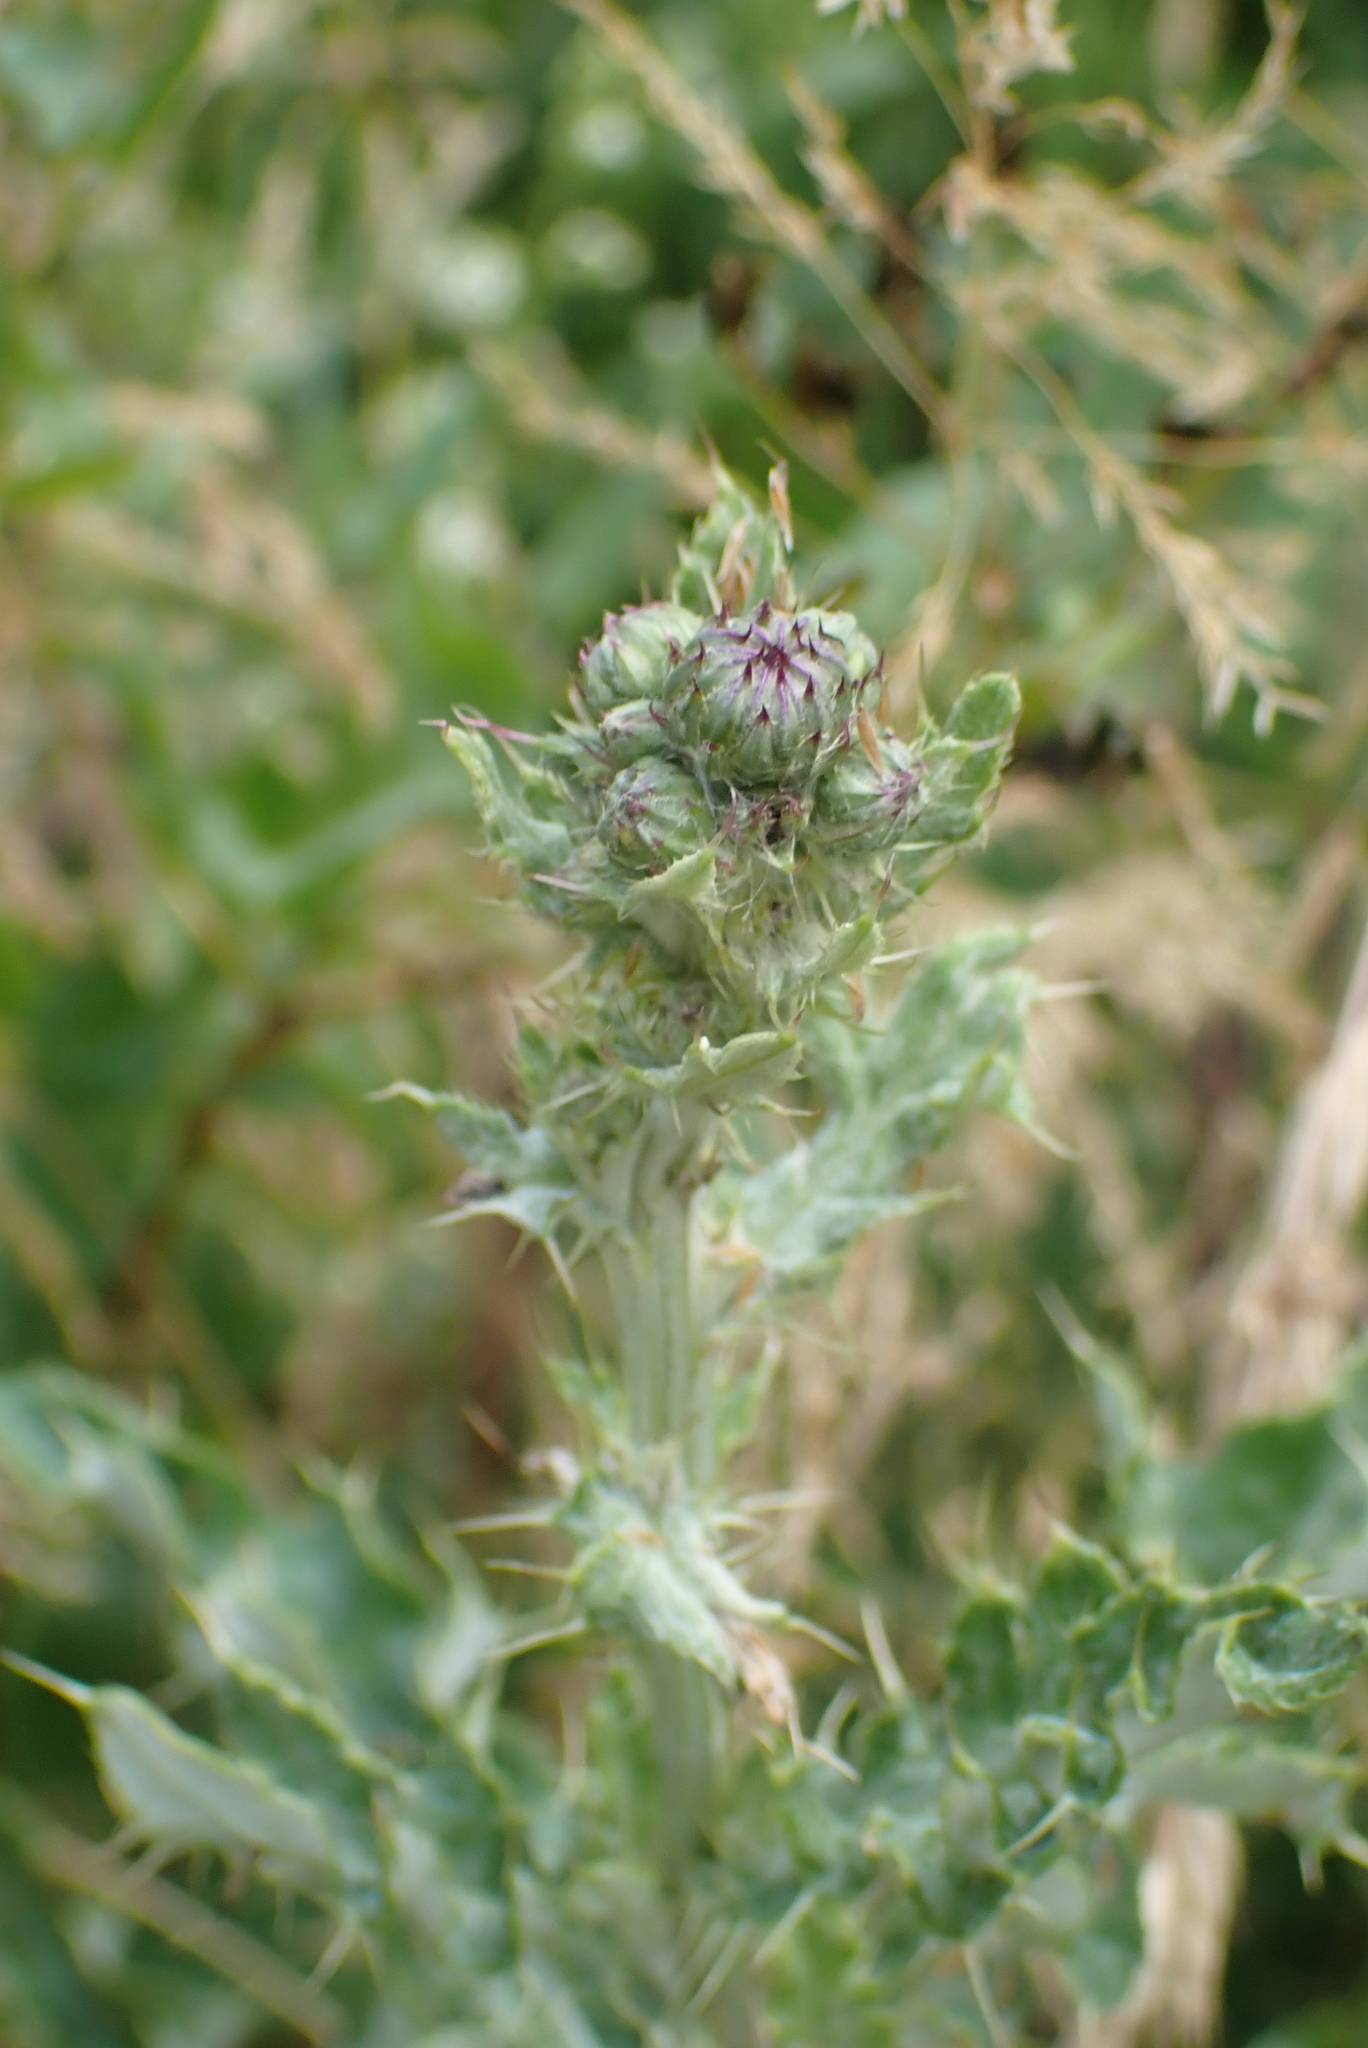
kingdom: Plantae
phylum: Tracheophyta
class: Magnoliopsida
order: Asterales
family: Asteraceae
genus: Cirsium
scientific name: Cirsium arvense
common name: Creeping thistle
